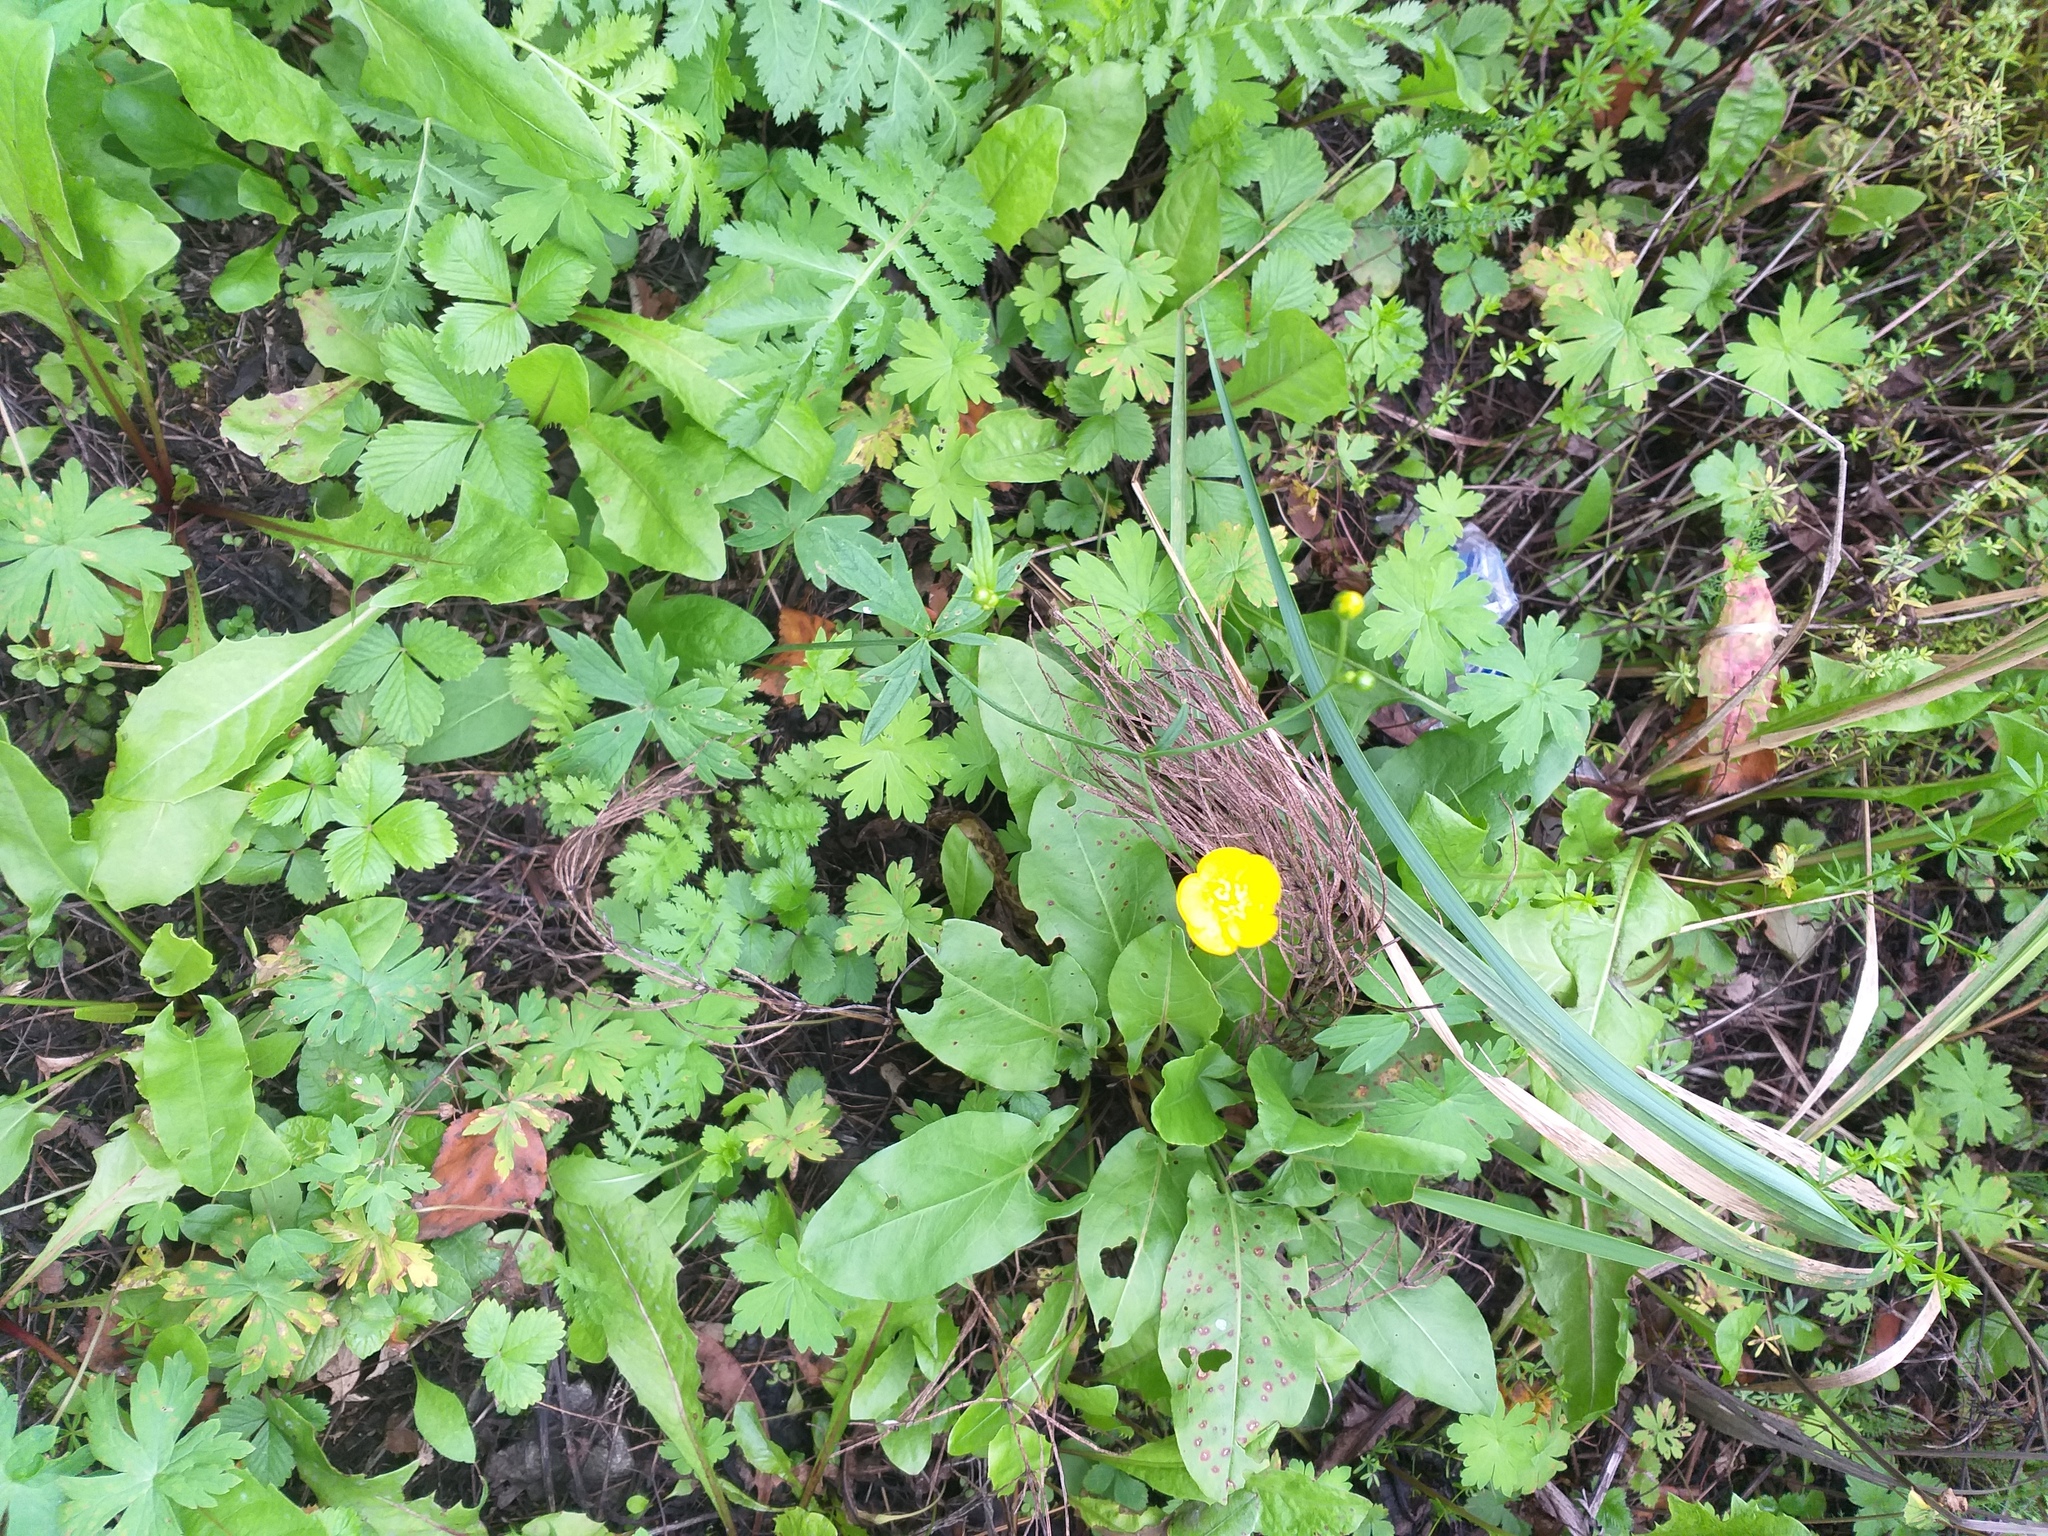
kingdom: Plantae
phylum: Tracheophyta
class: Magnoliopsida
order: Ranunculales
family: Ranunculaceae
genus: Ranunculus
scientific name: Ranunculus acris
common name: Meadow buttercup
